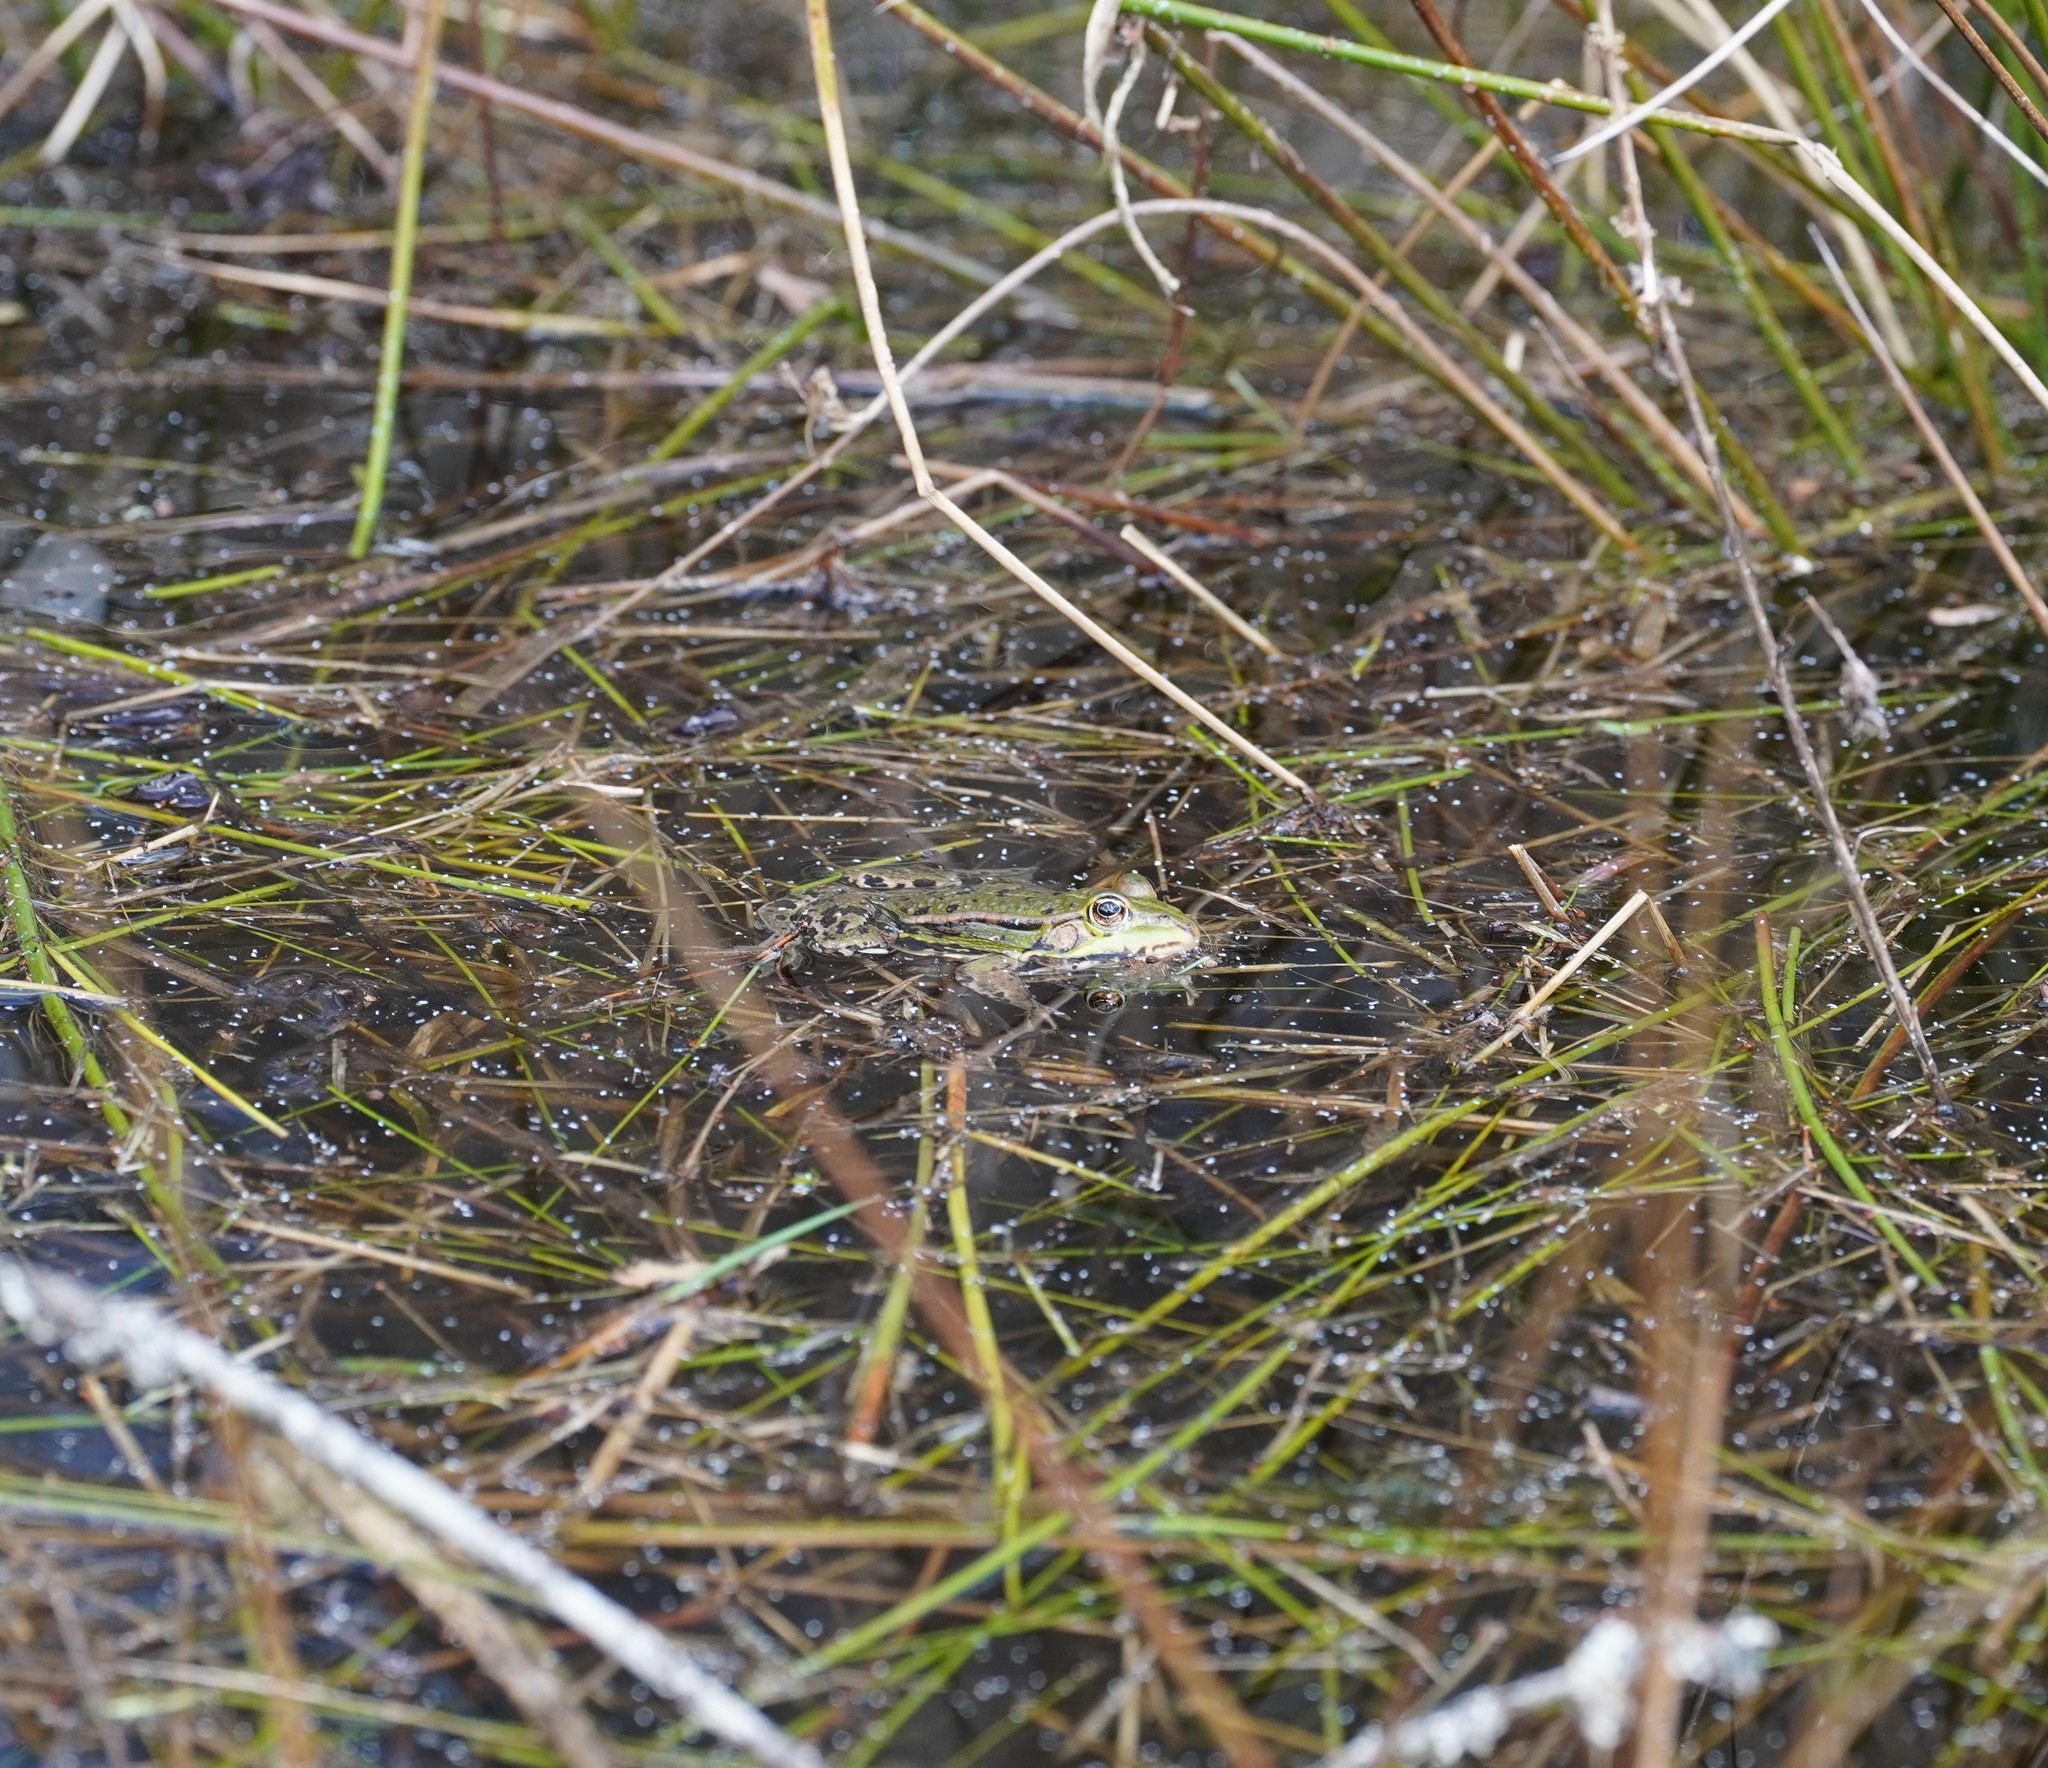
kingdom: Animalia
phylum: Chordata
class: Amphibia
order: Anura
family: Ranidae
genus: Pelophylax
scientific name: Pelophylax
